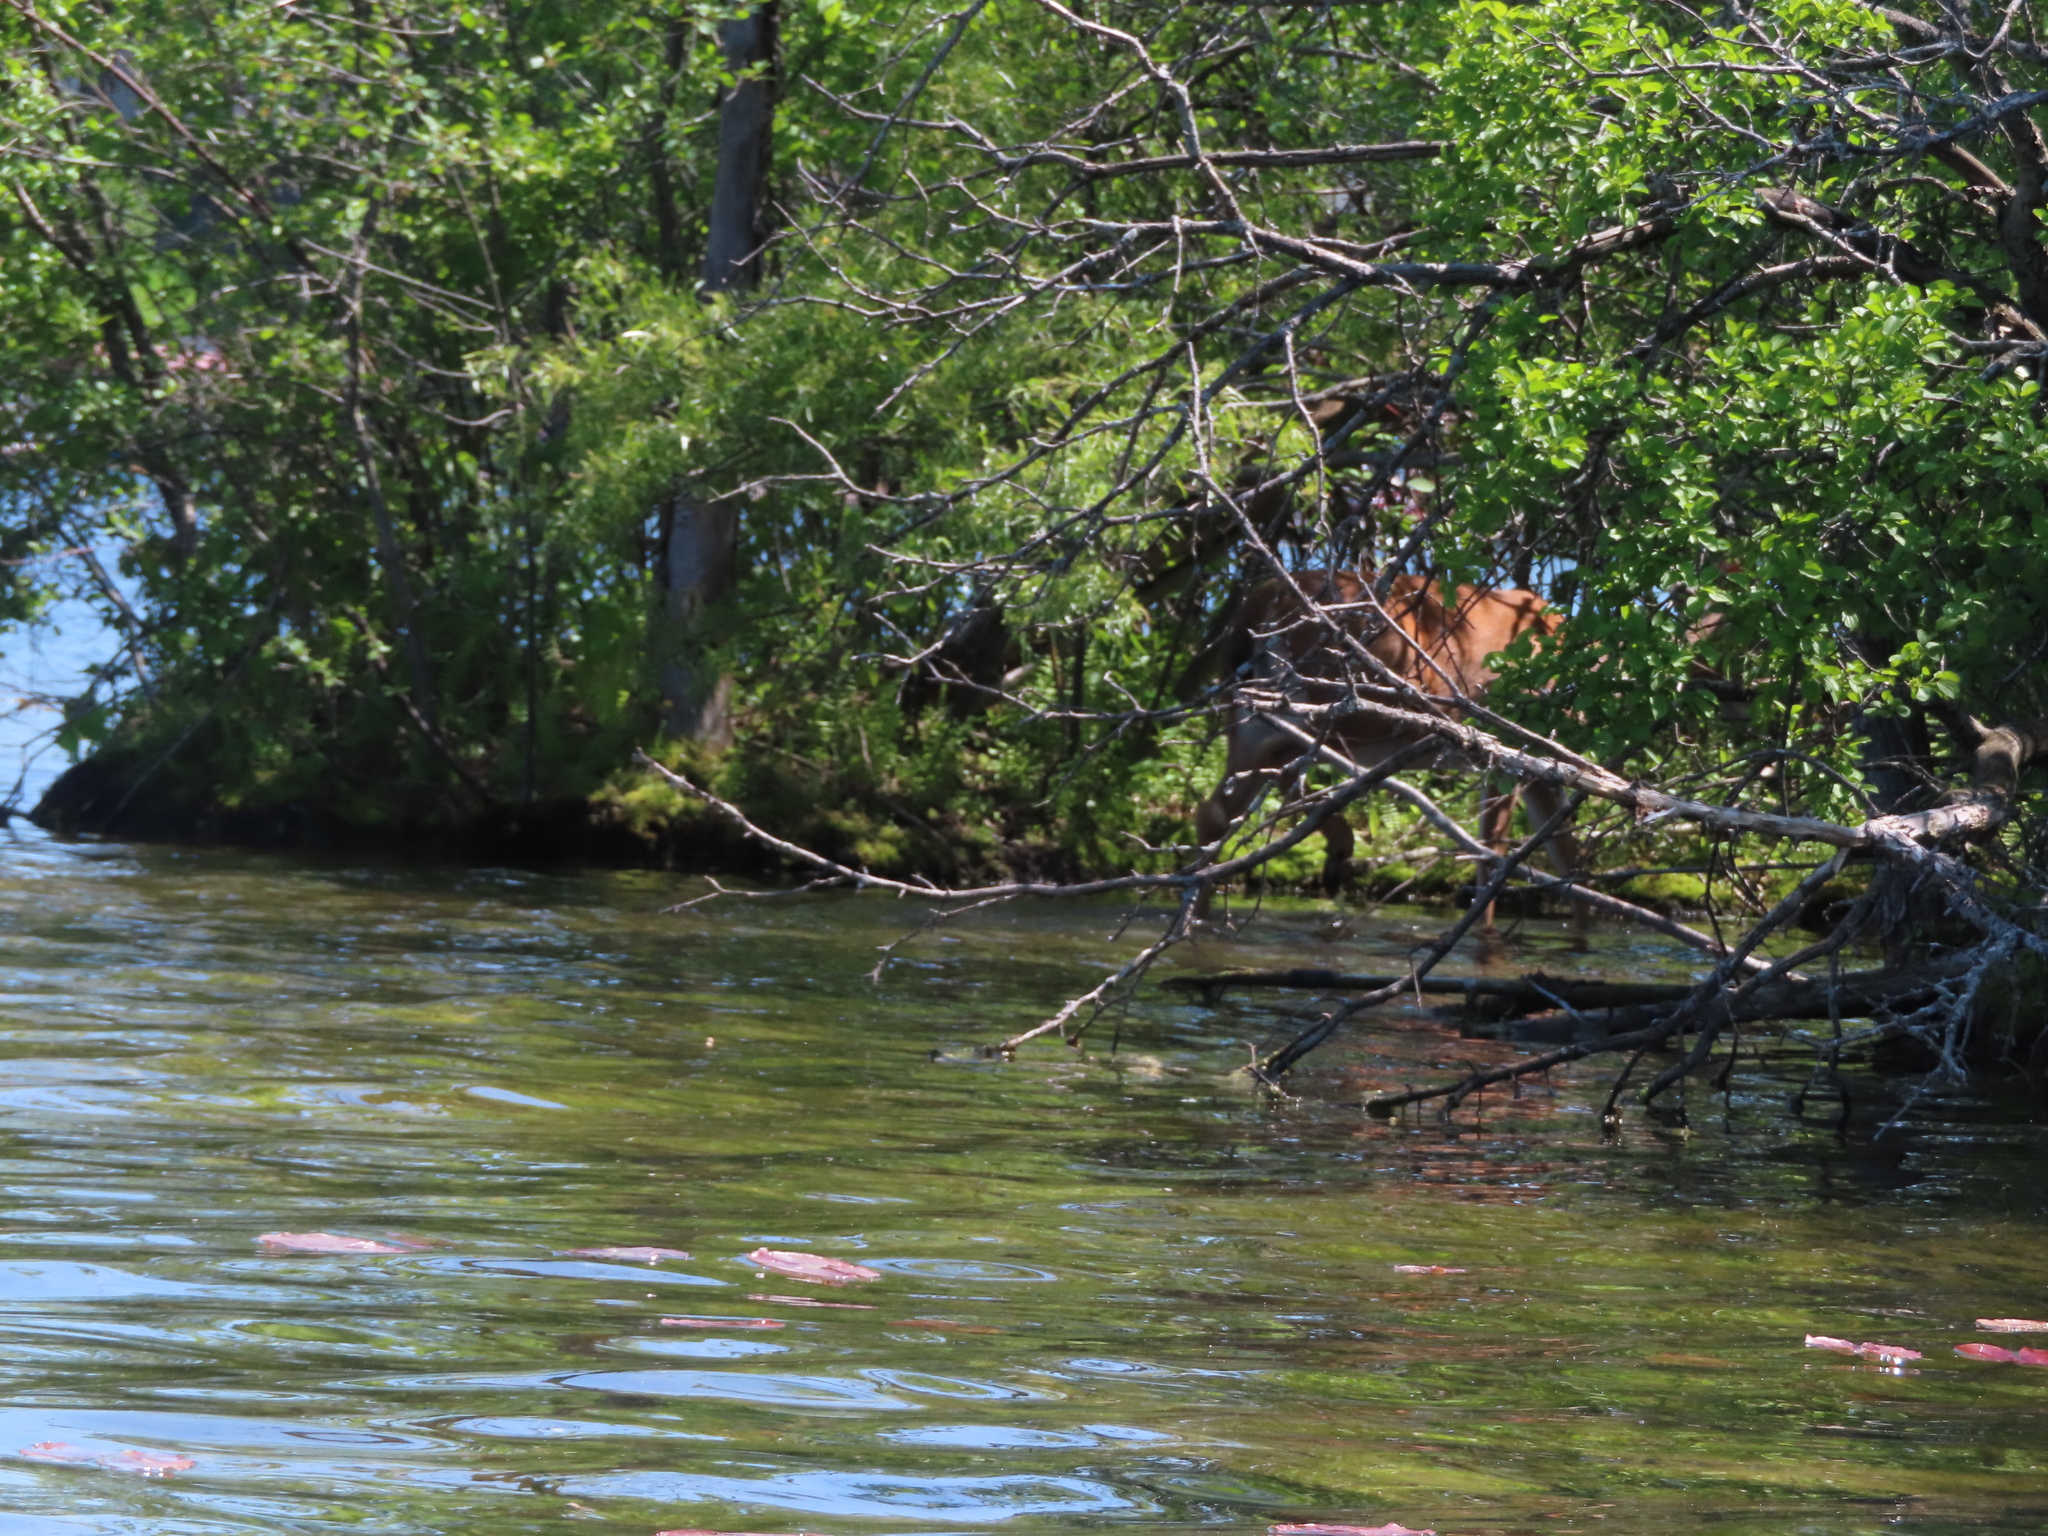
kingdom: Animalia
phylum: Chordata
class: Mammalia
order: Artiodactyla
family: Cervidae
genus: Odocoileus
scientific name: Odocoileus virginianus
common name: White-tailed deer
